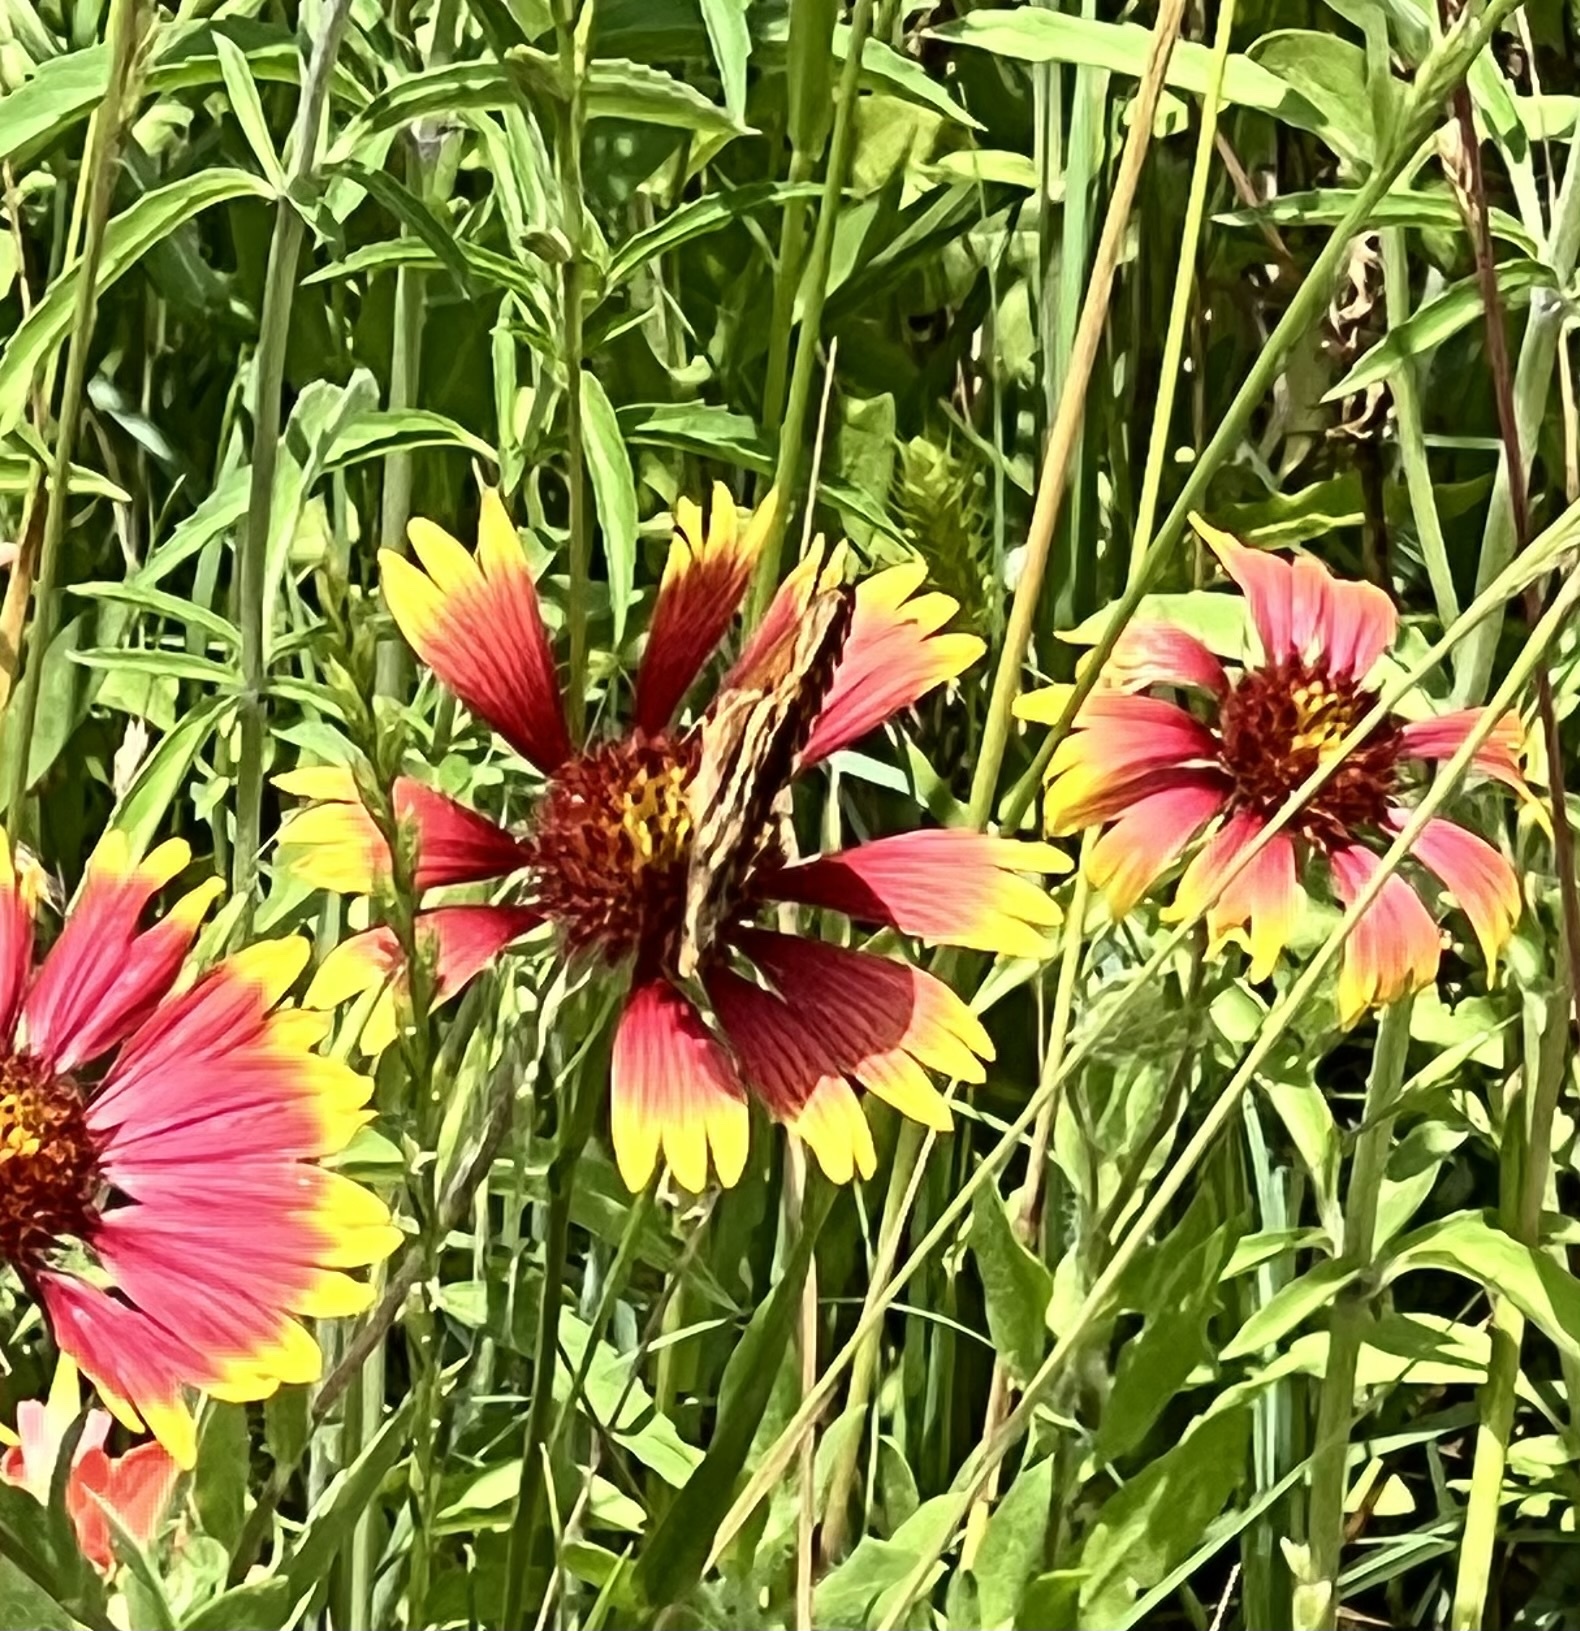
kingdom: Animalia
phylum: Arthropoda
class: Insecta
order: Lepidoptera
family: Nymphalidae
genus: Euptoieta
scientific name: Euptoieta claudia
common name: Variegated fritillary
